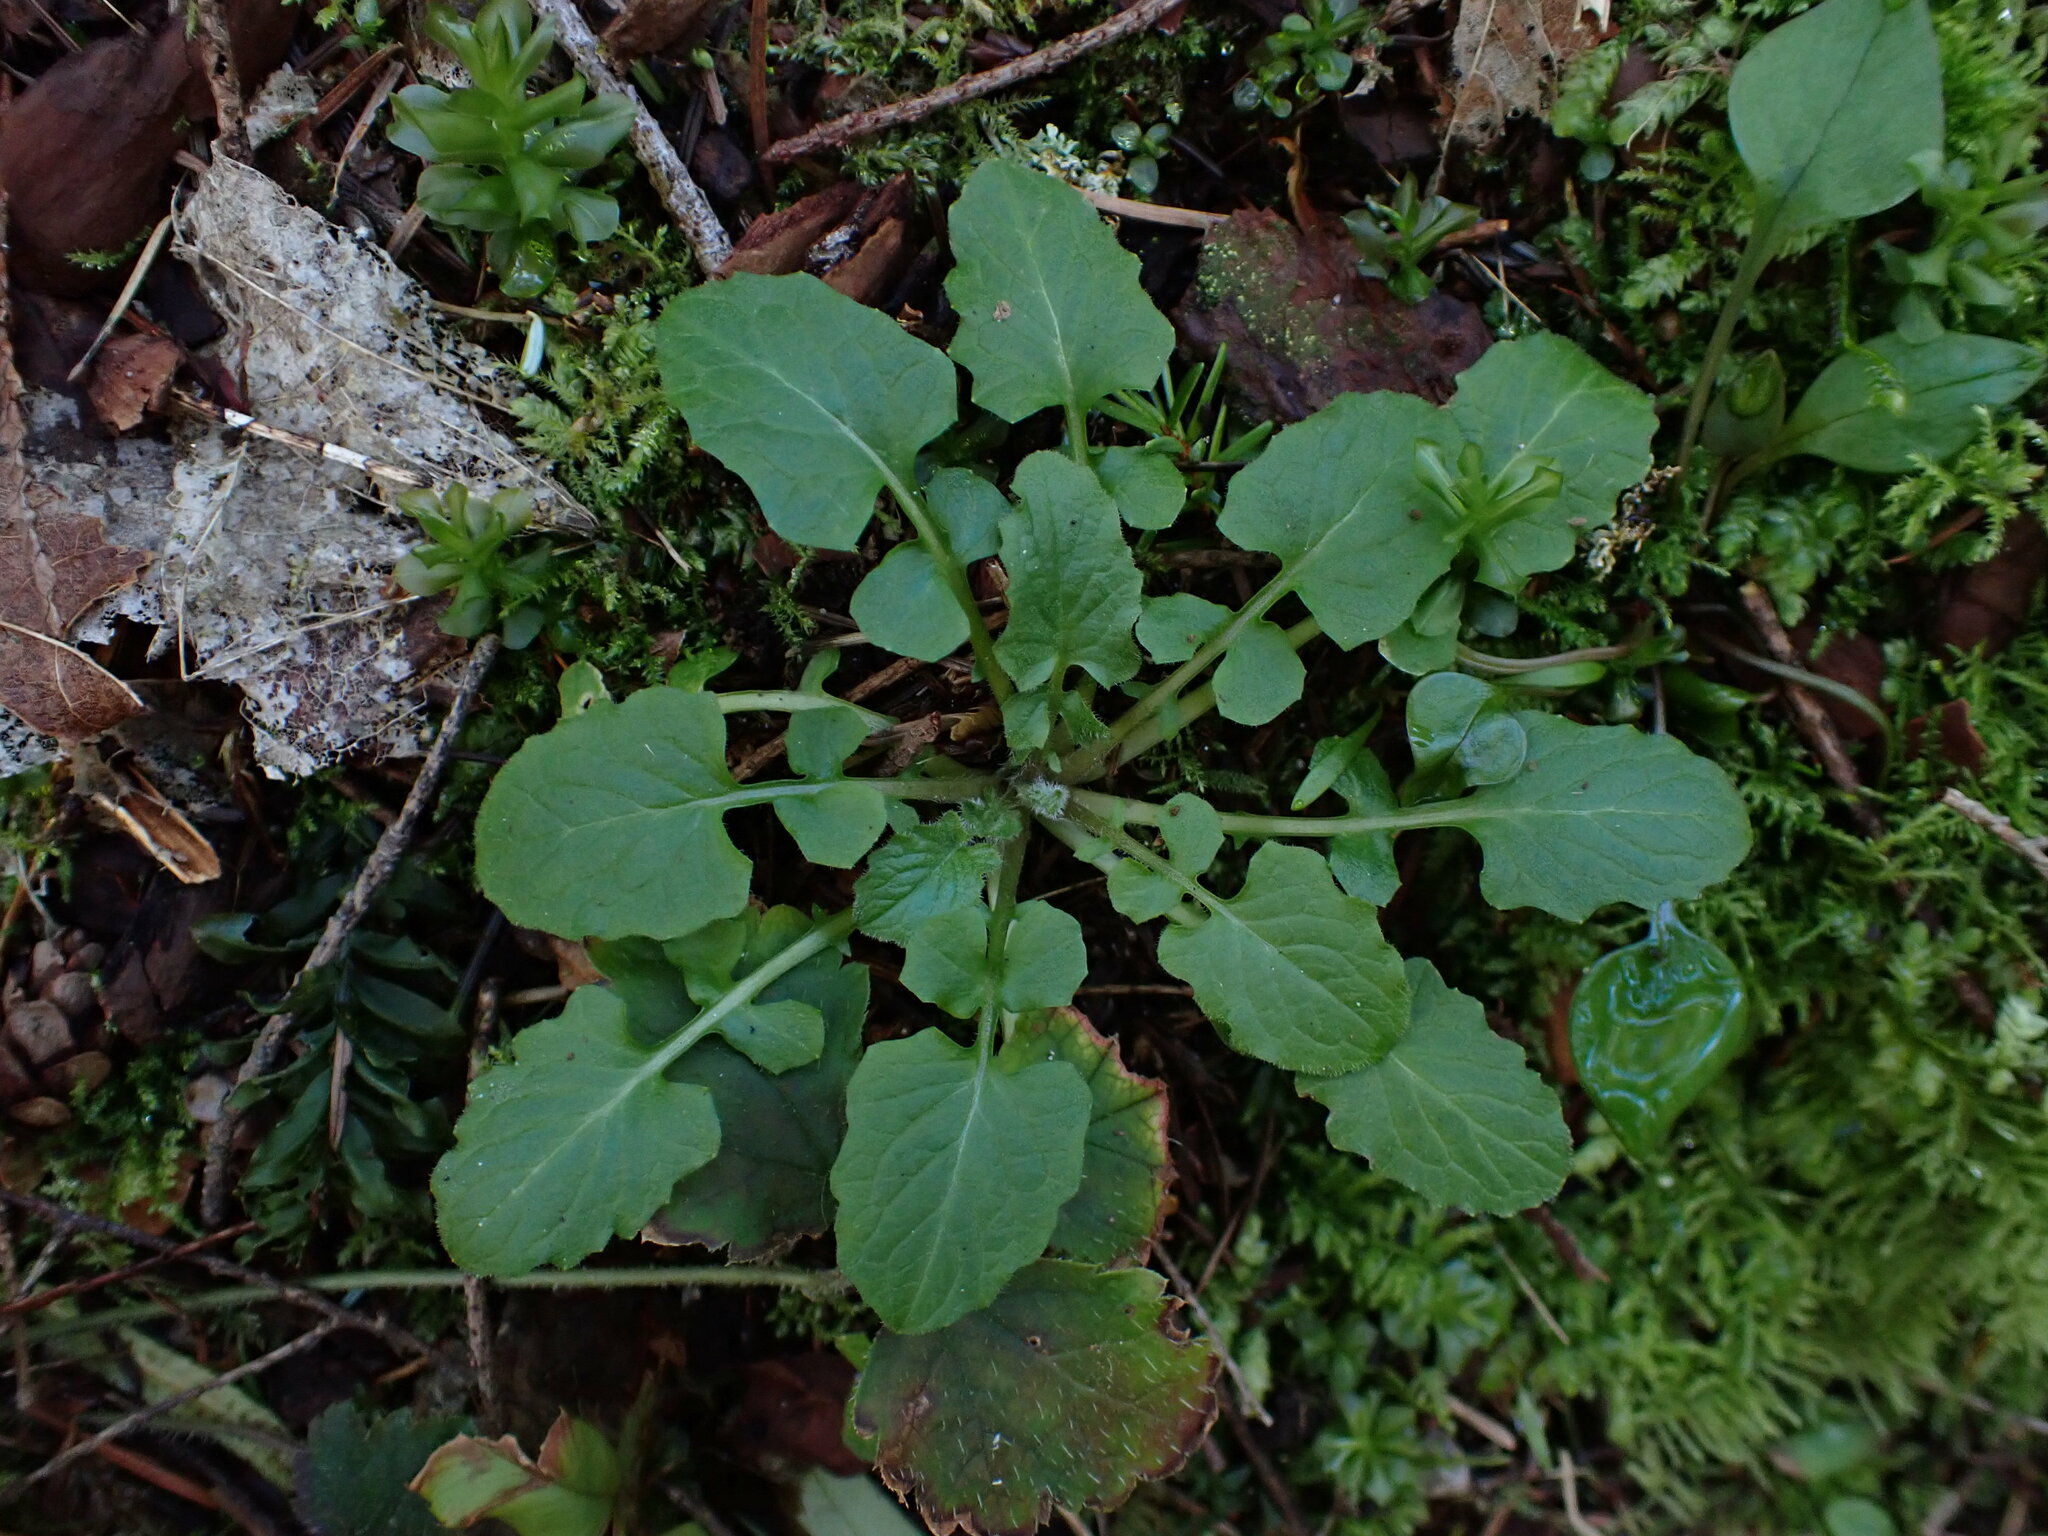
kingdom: Plantae
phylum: Tracheophyta
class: Magnoliopsida
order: Asterales
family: Asteraceae
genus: Lapsana
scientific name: Lapsana communis
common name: Nipplewort
